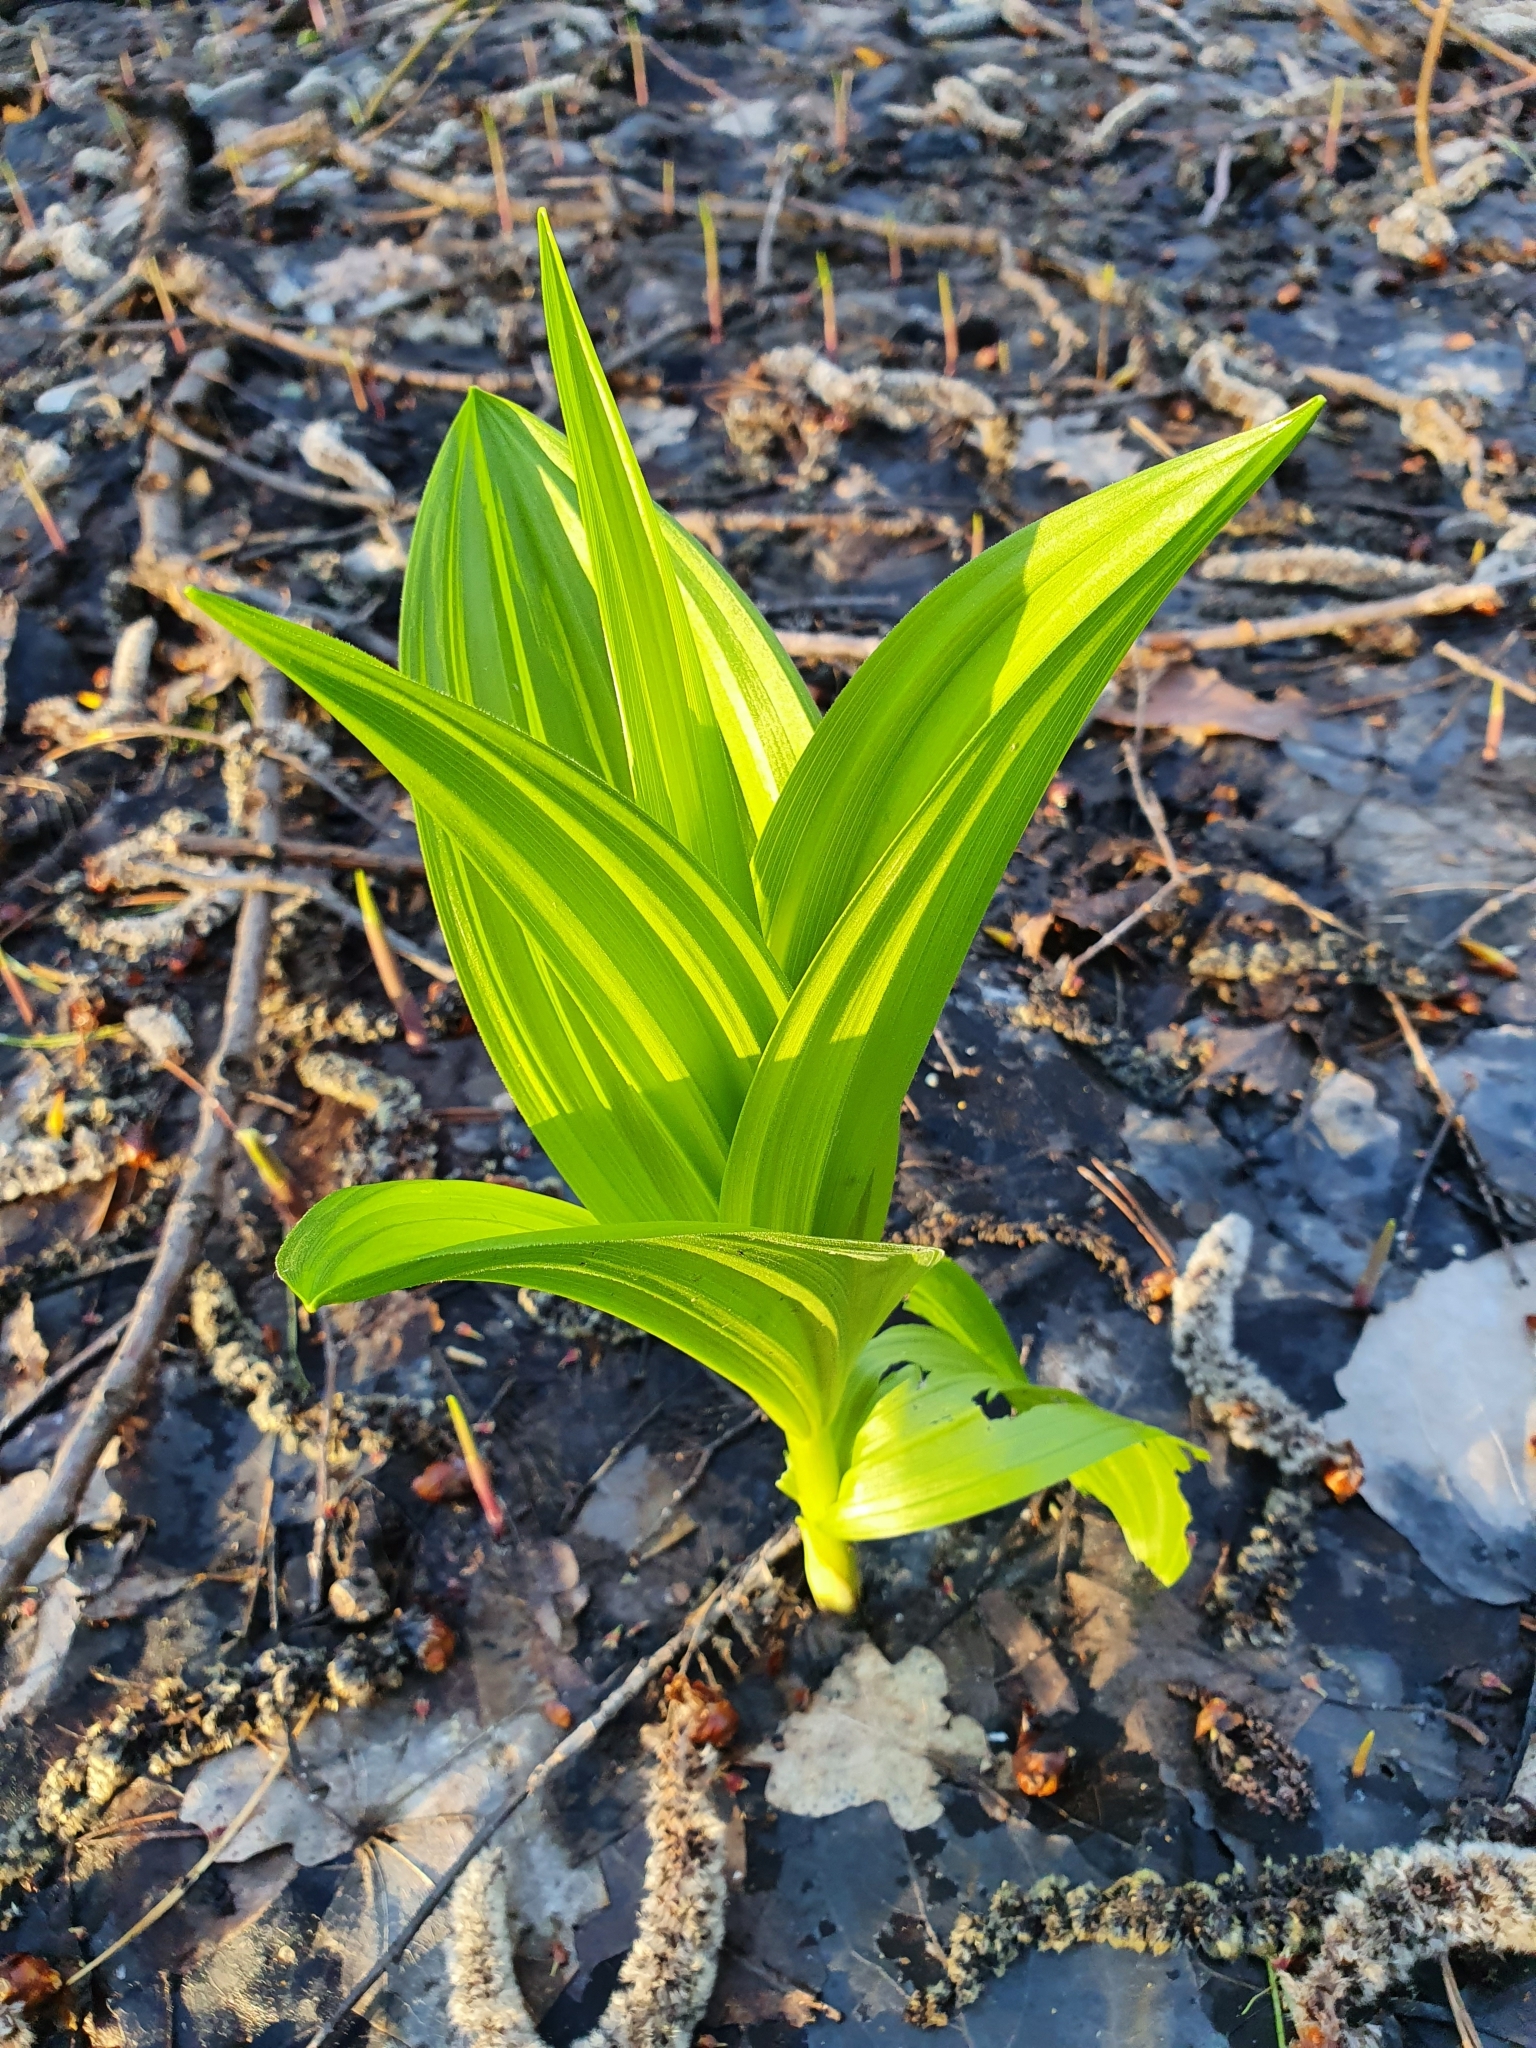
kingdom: Plantae
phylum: Tracheophyta
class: Liliopsida
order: Liliales
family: Melanthiaceae
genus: Veratrum
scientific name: Veratrum lobelianum
